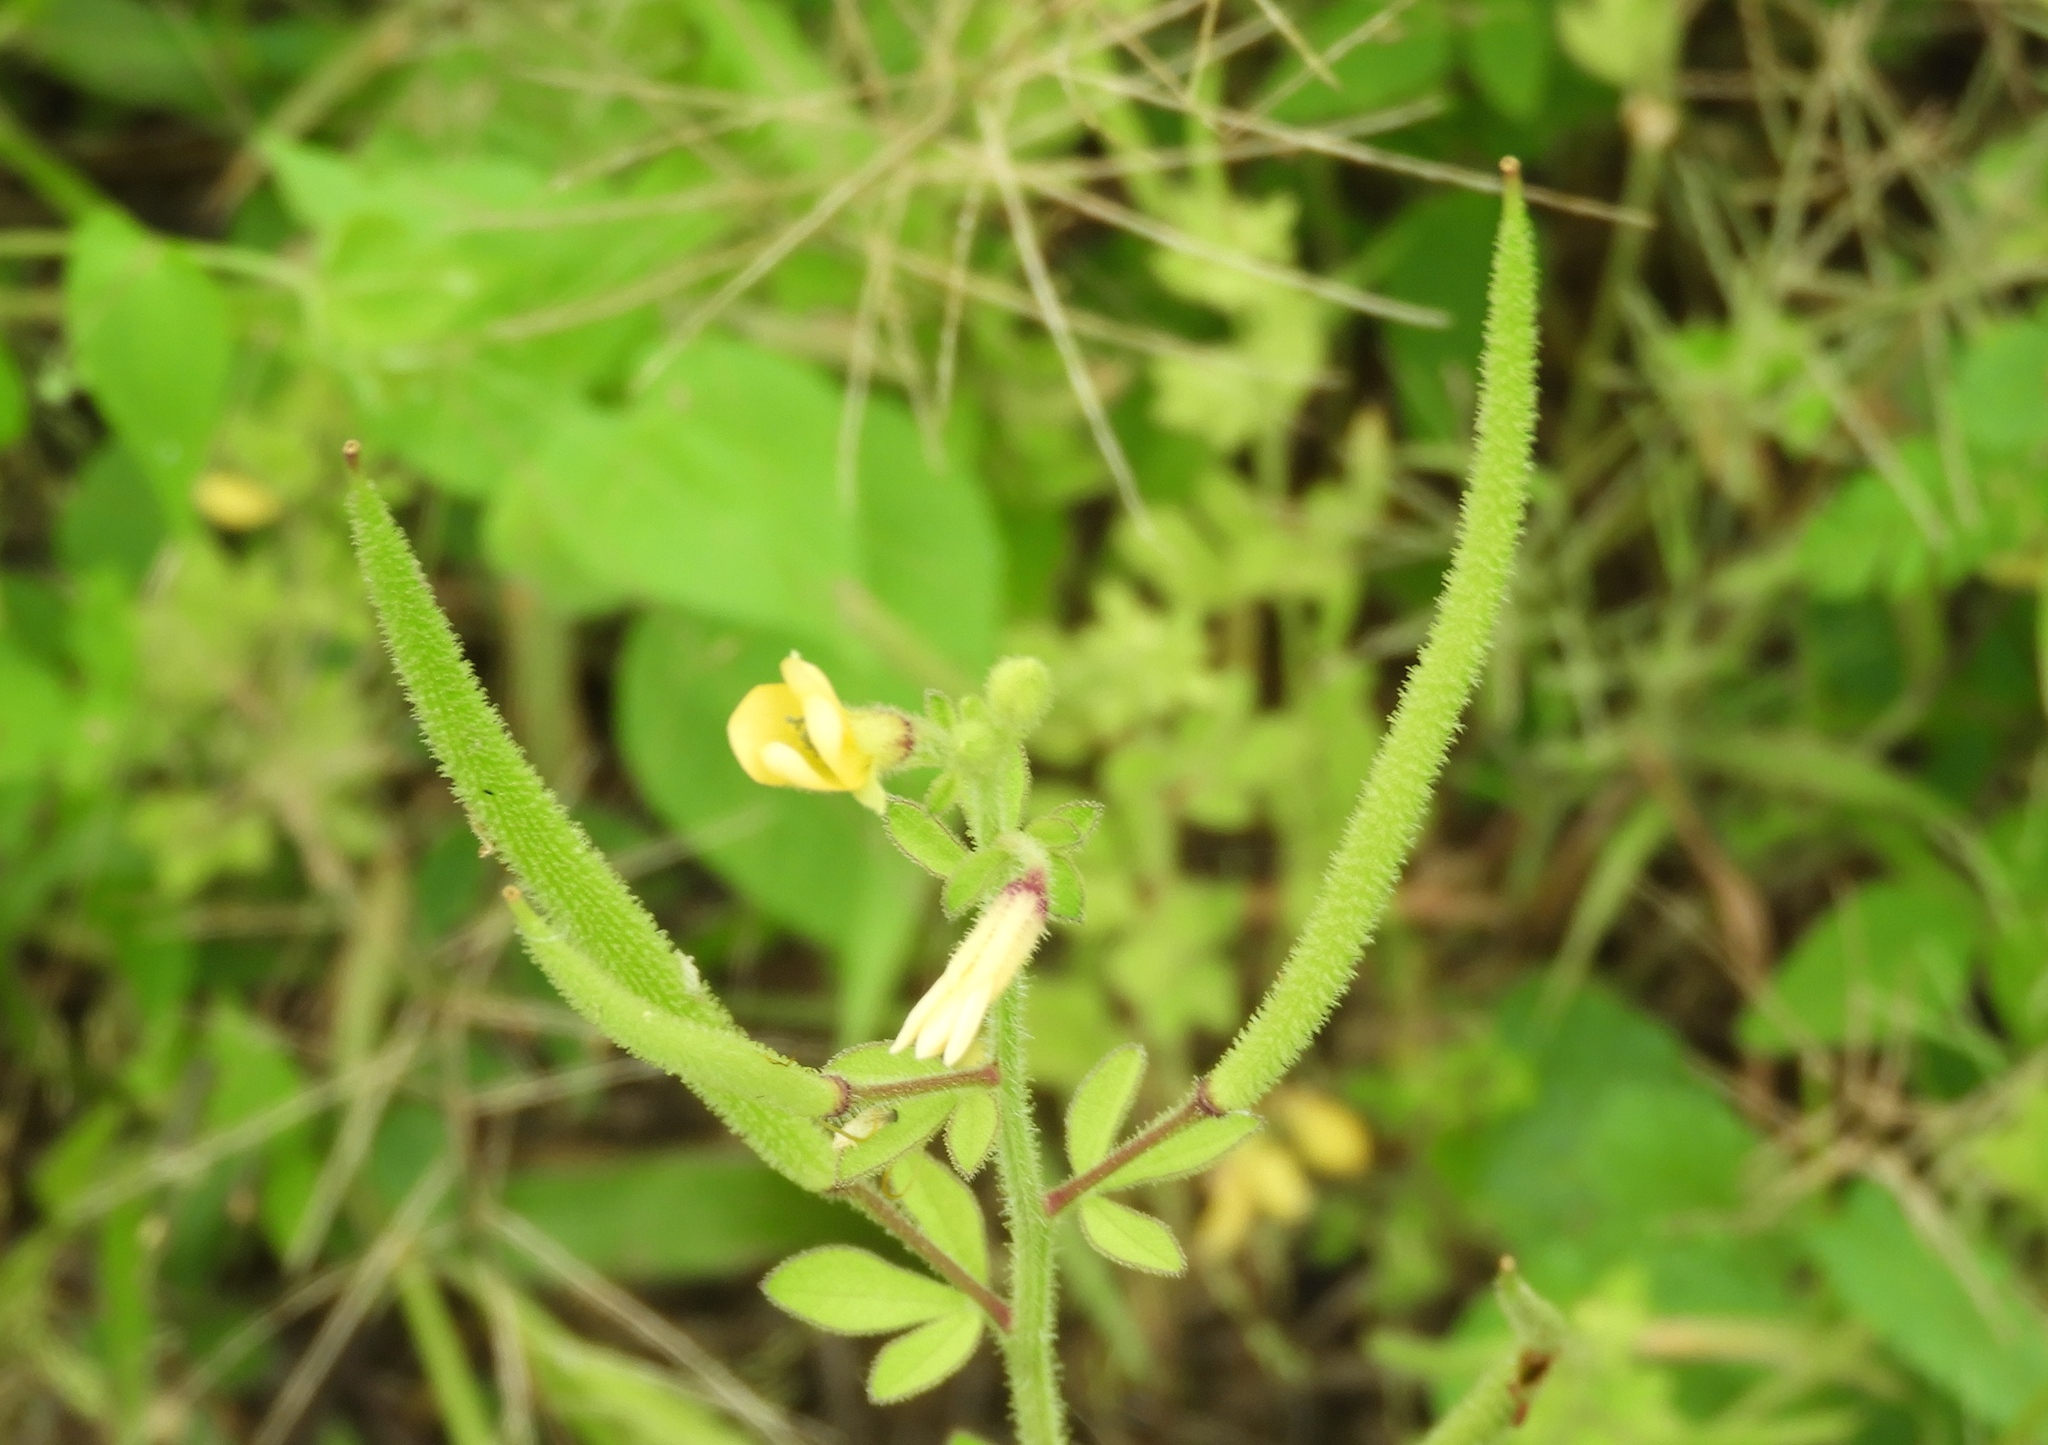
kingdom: Plantae
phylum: Tracheophyta
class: Magnoliopsida
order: Brassicales
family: Cleomaceae
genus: Arivela
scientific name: Arivela viscosa
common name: Asian spiderflower
